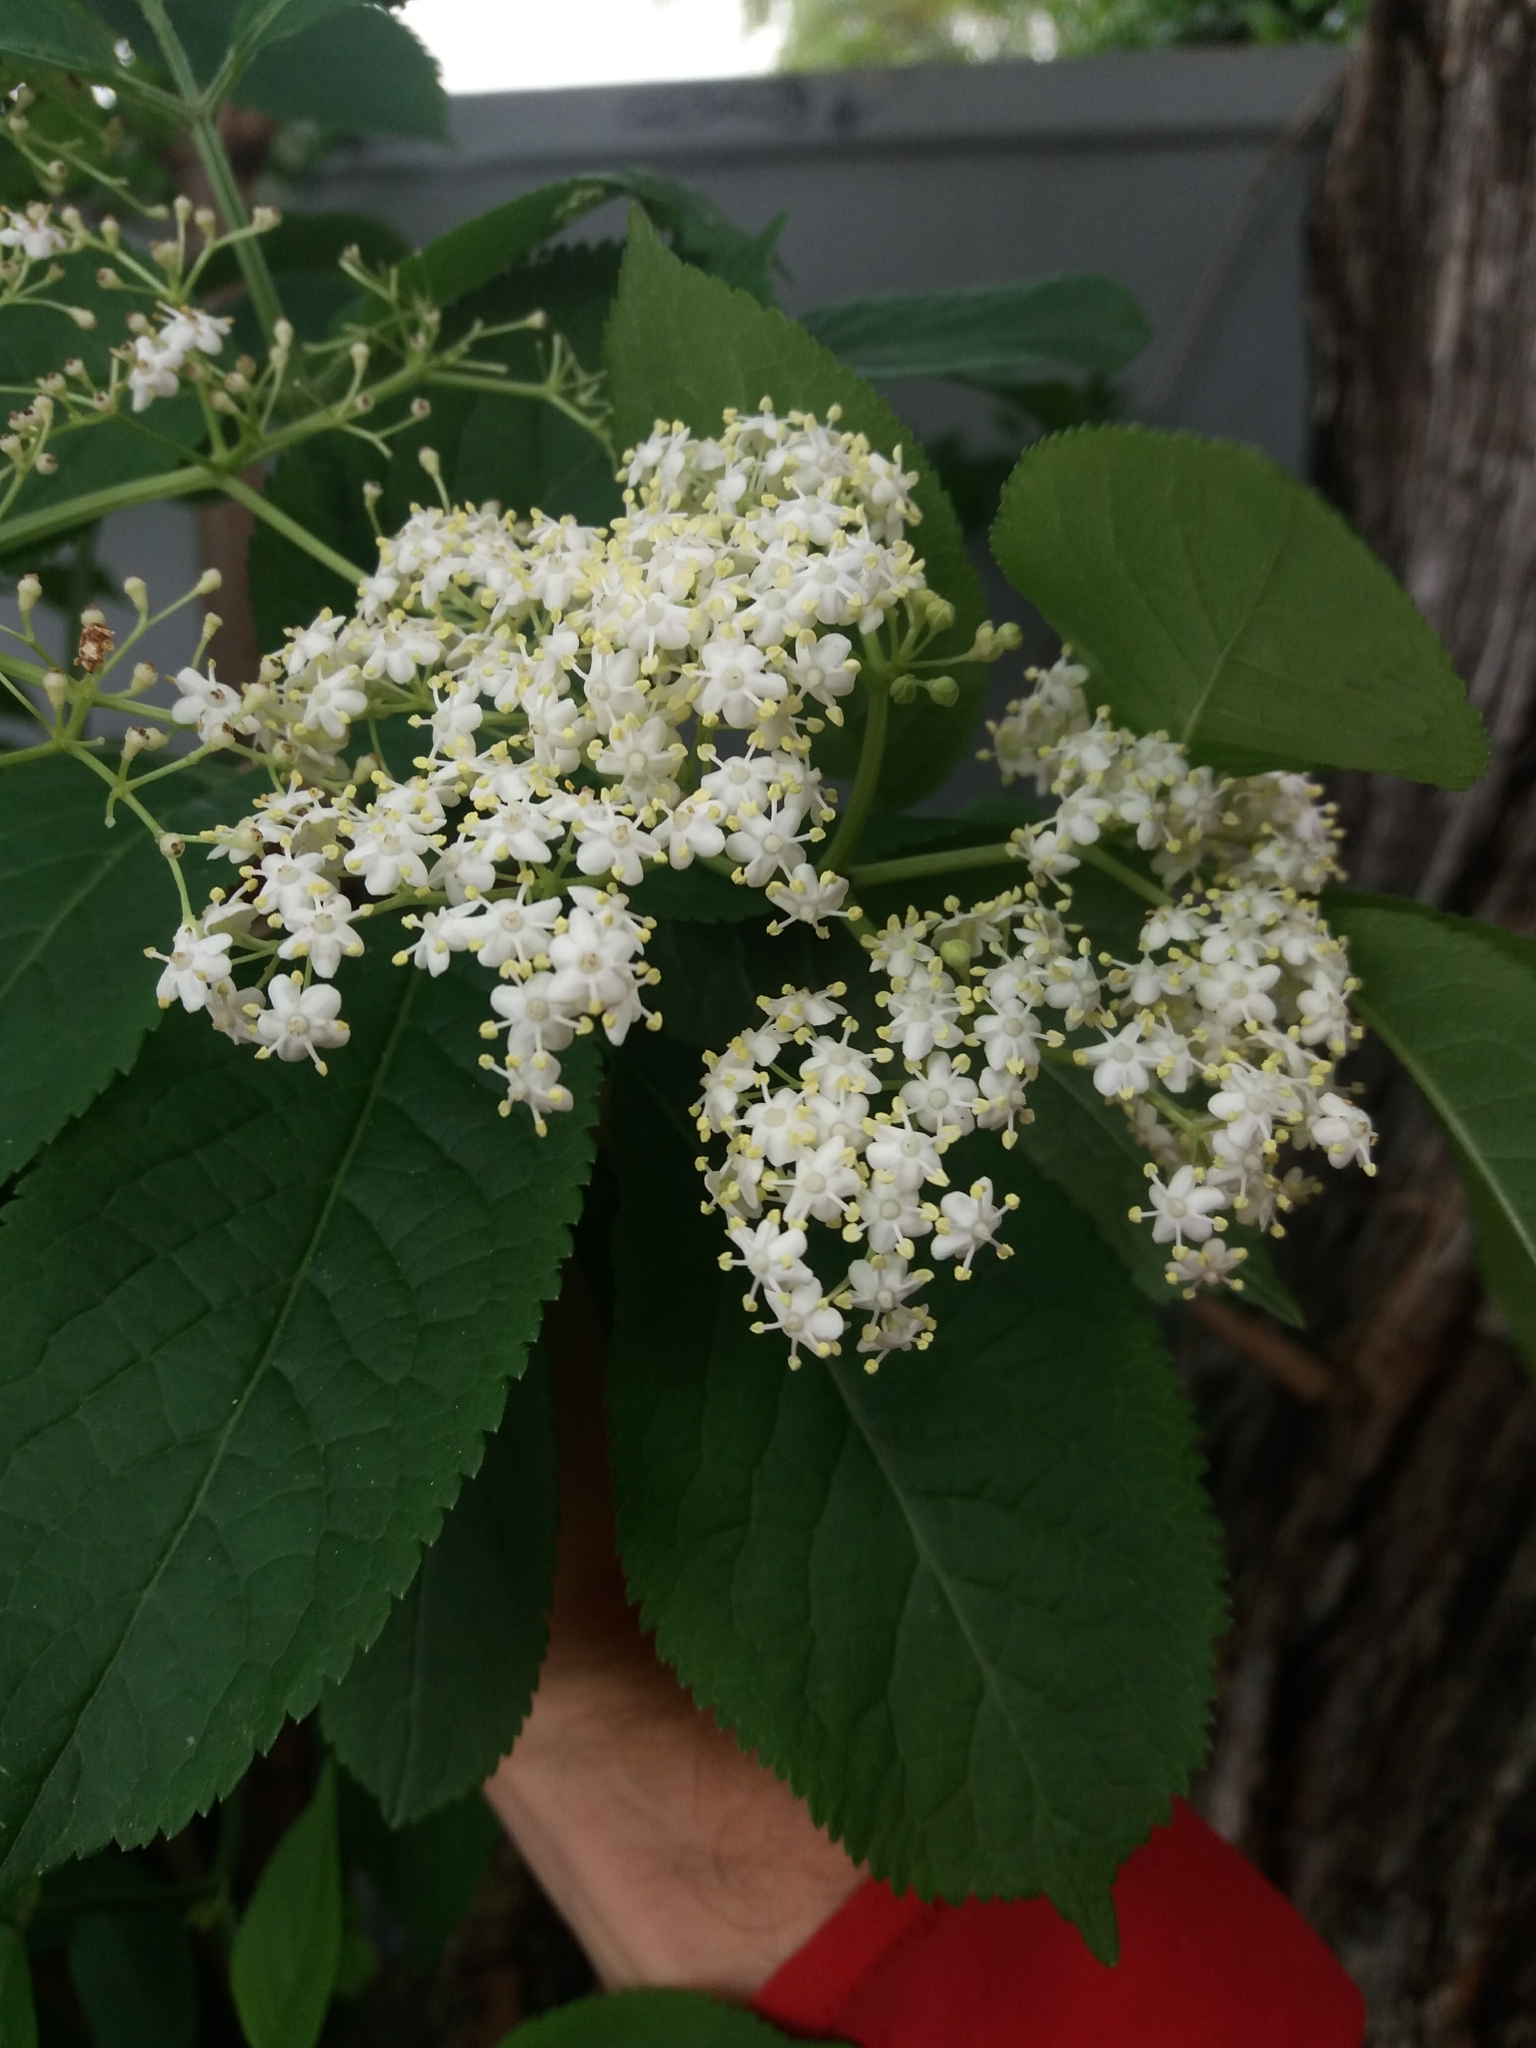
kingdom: Plantae
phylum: Tracheophyta
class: Magnoliopsida
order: Dipsacales
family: Viburnaceae
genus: Sambucus
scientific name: Sambucus nigra
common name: Elder
